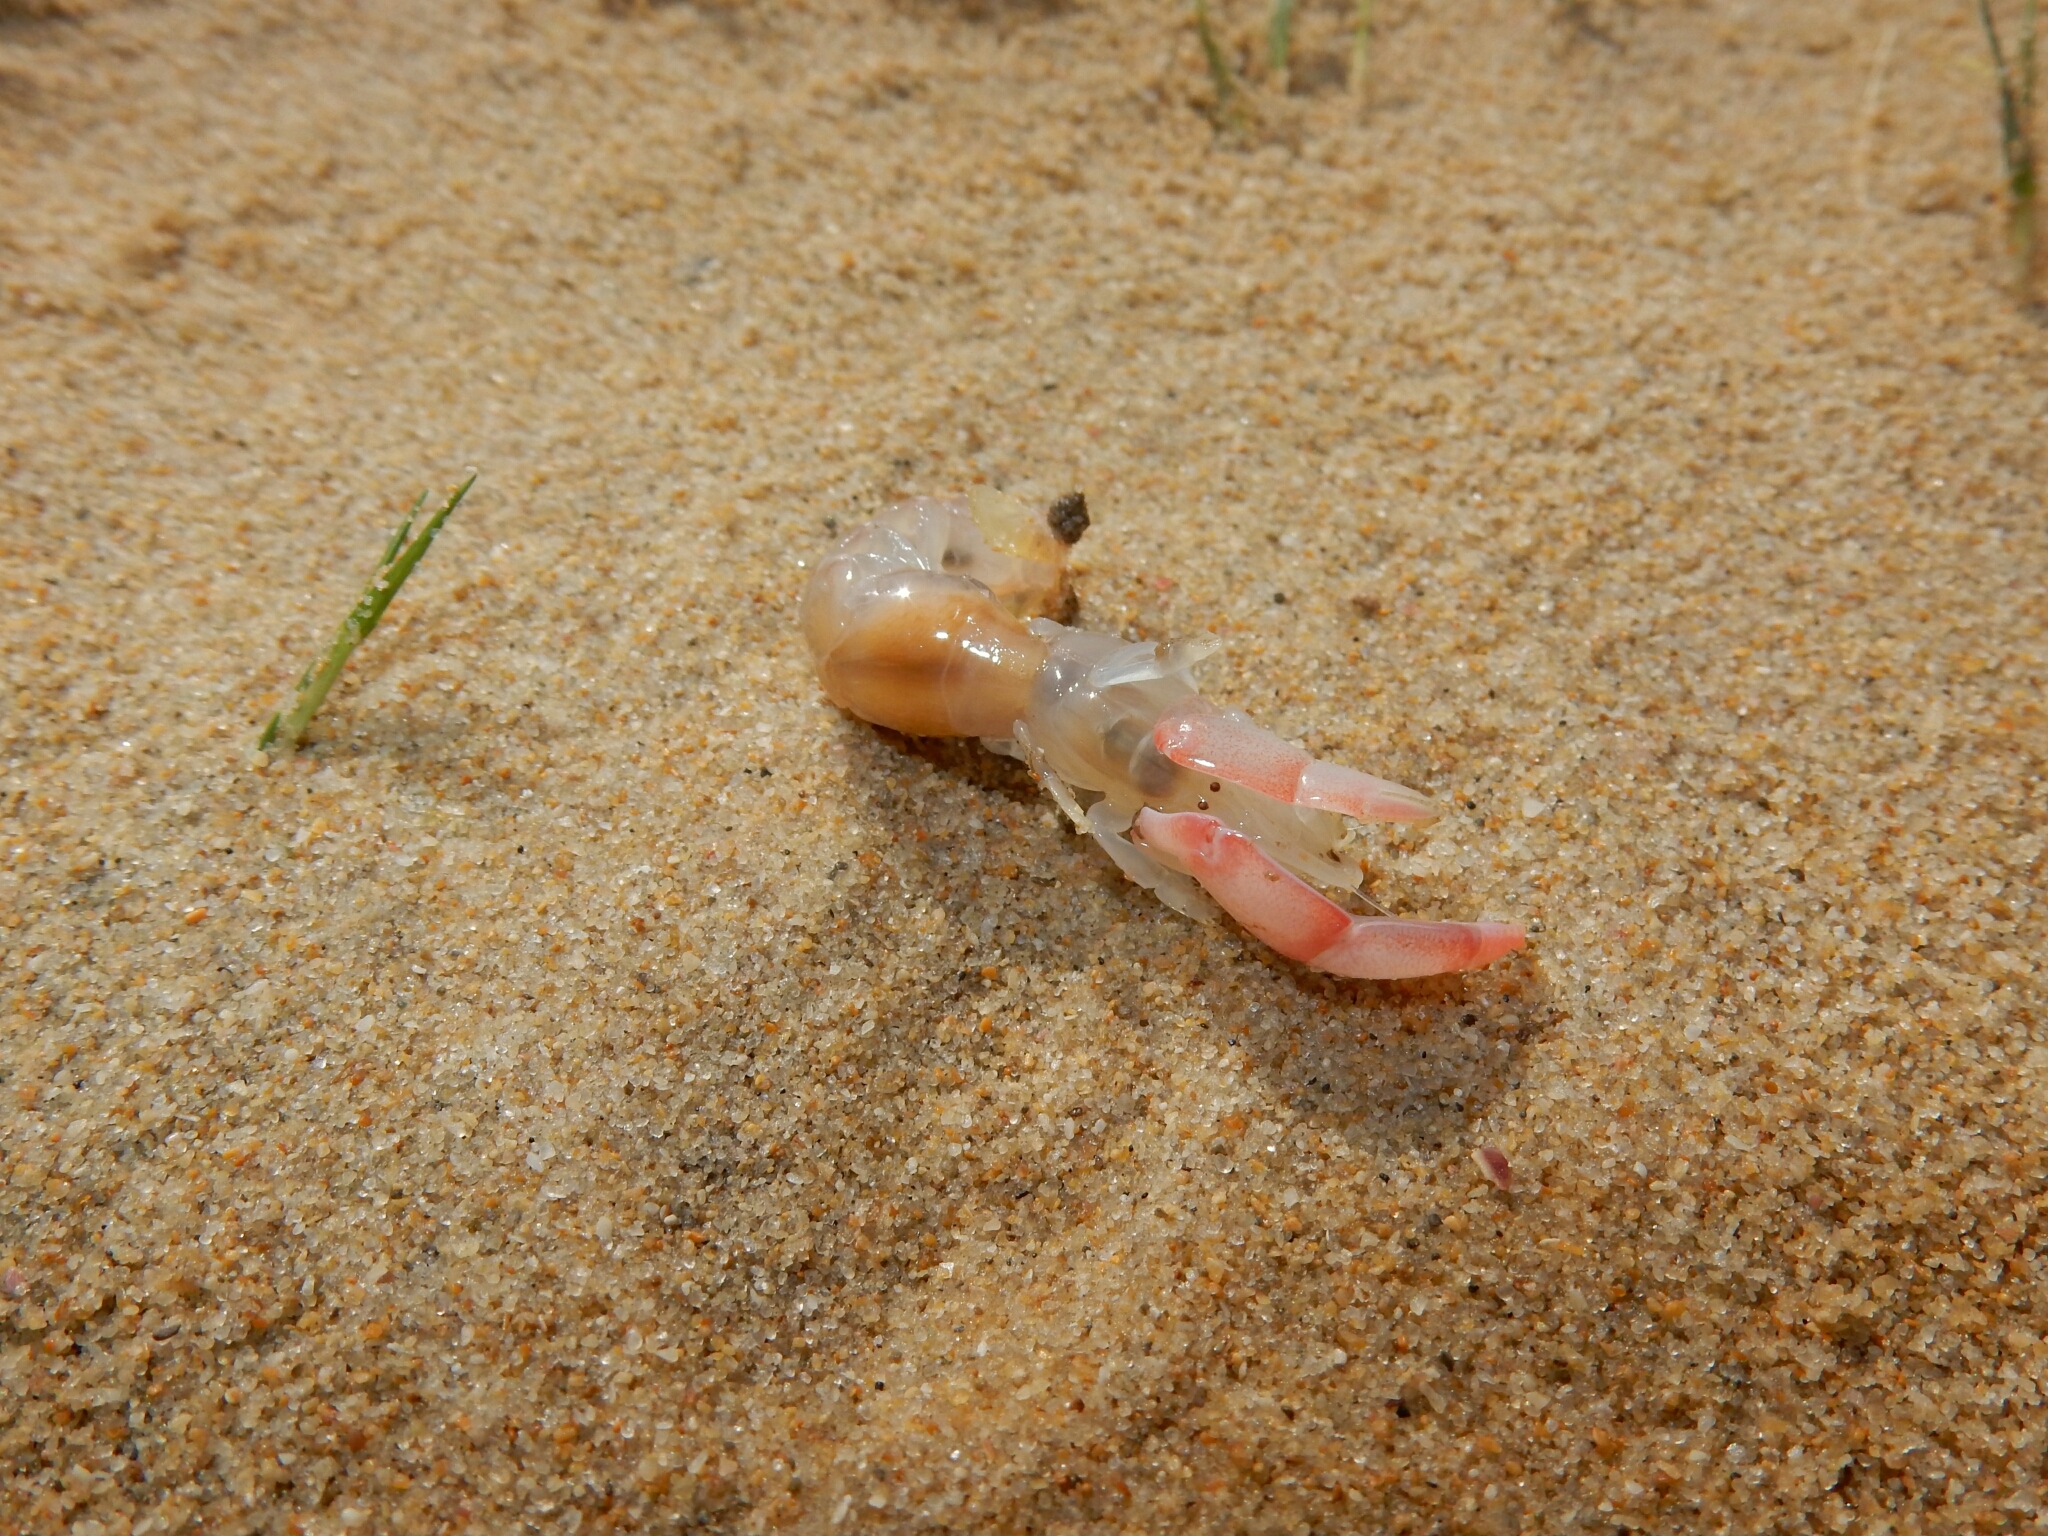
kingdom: Animalia
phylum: Arthropoda
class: Malacostraca
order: Decapoda
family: Callichiridae
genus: Kraussillichirus
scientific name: Kraussillichirus kraussi
